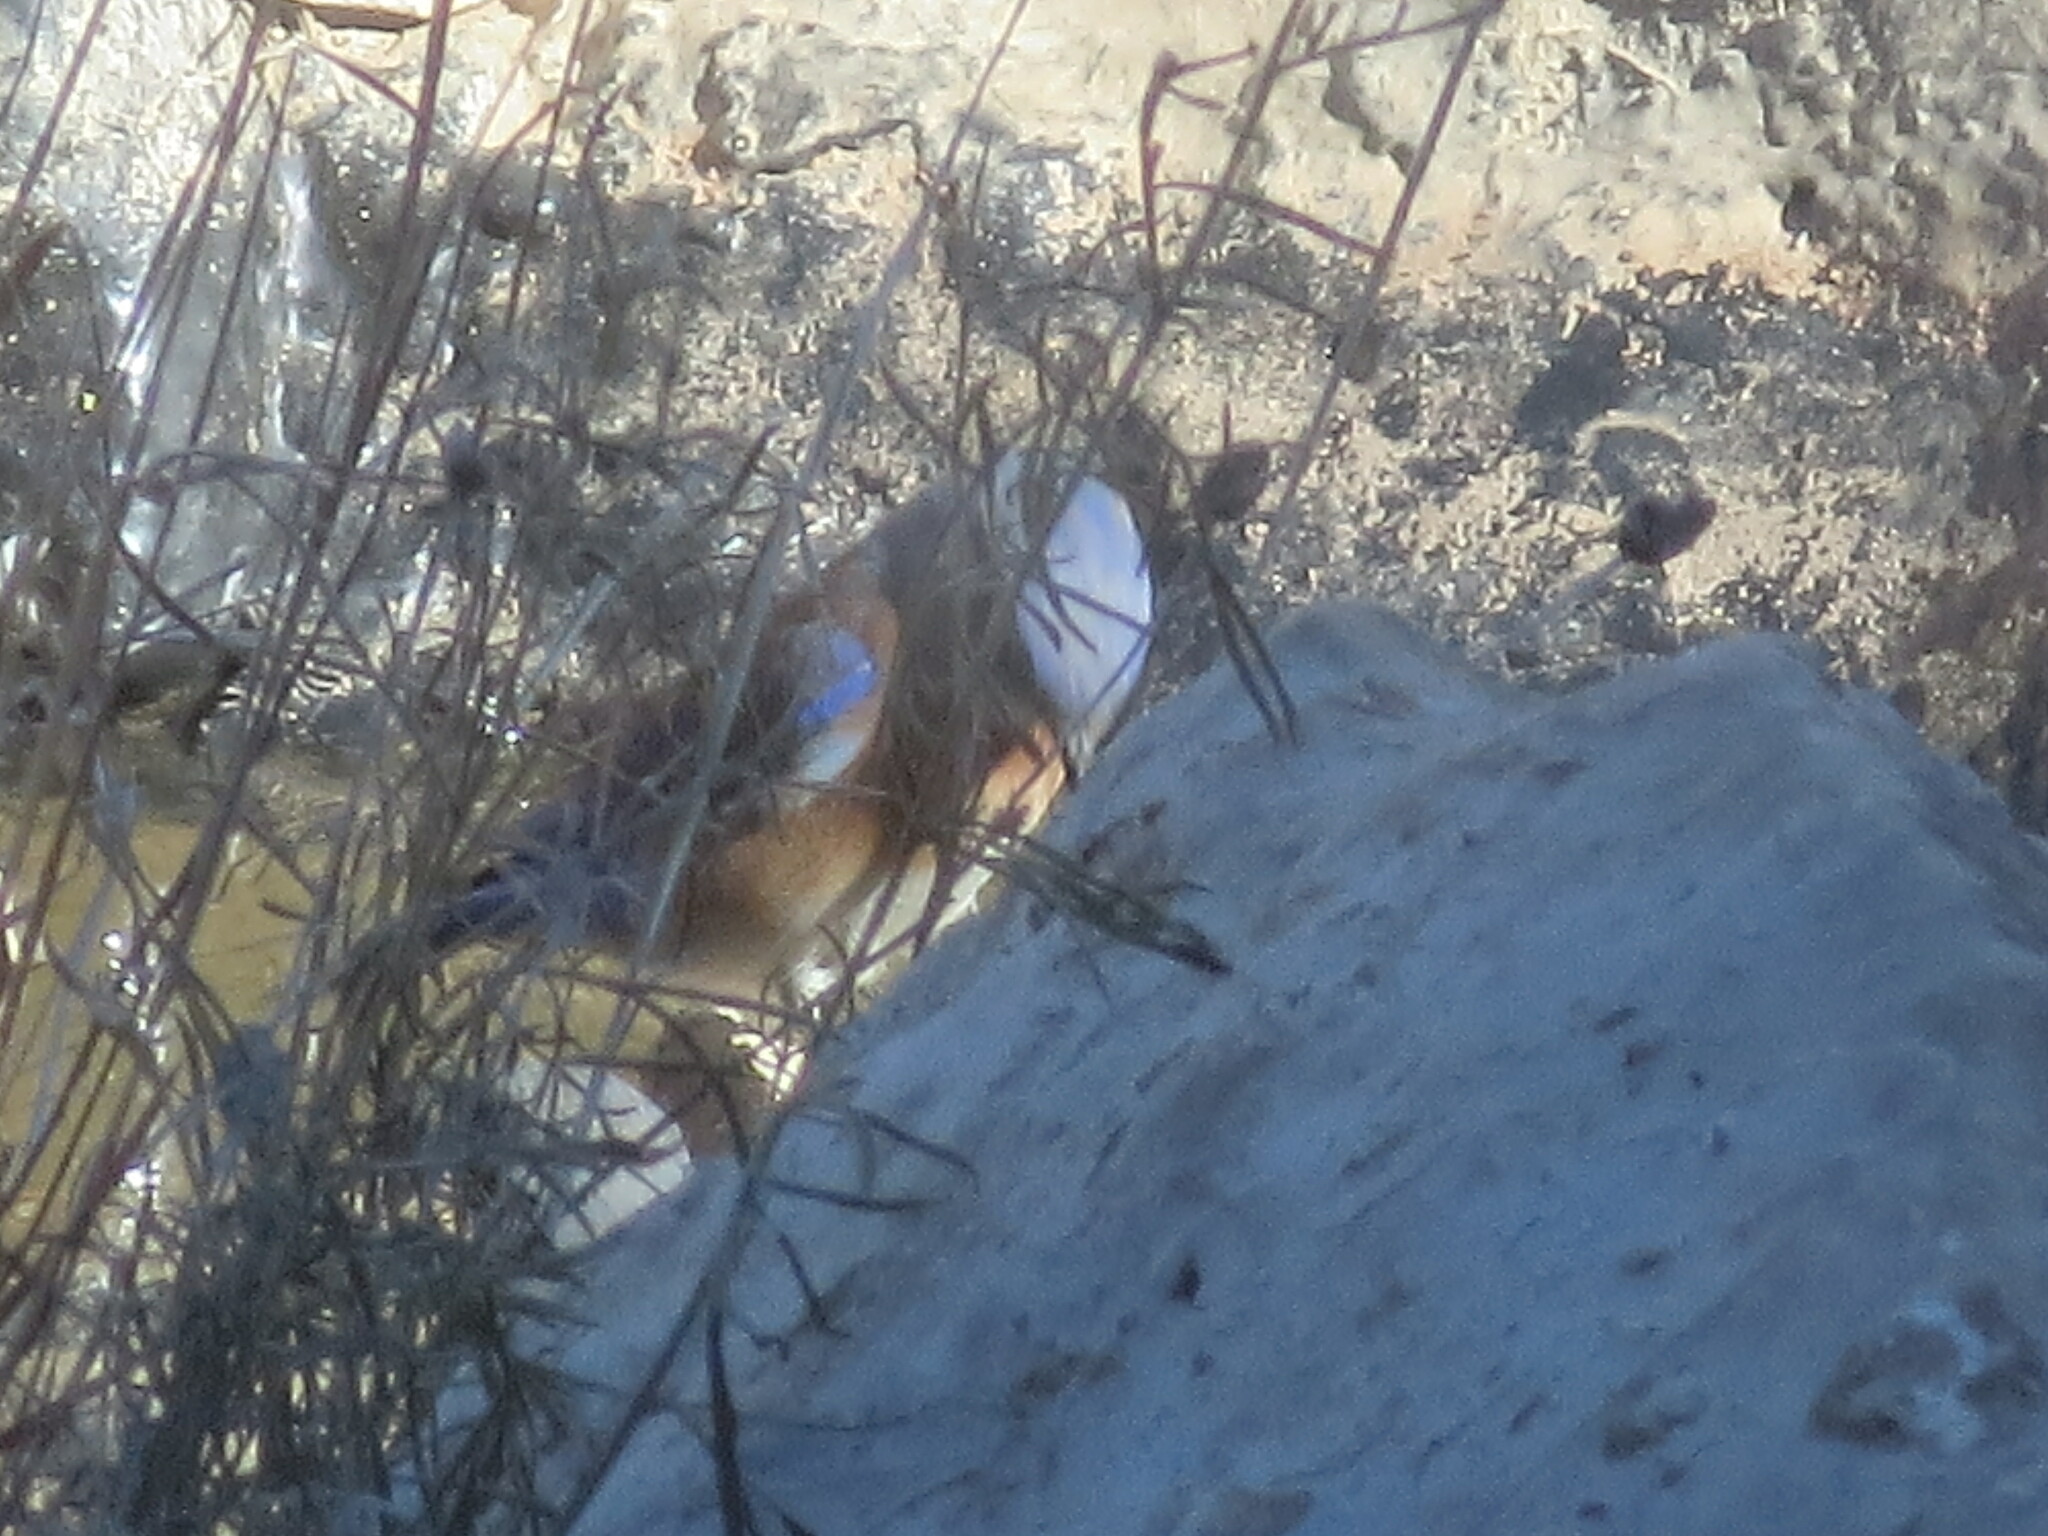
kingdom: Animalia
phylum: Chordata
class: Aves
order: Passeriformes
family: Turdidae
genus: Sialia
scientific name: Sialia sialis
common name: Eastern bluebird
